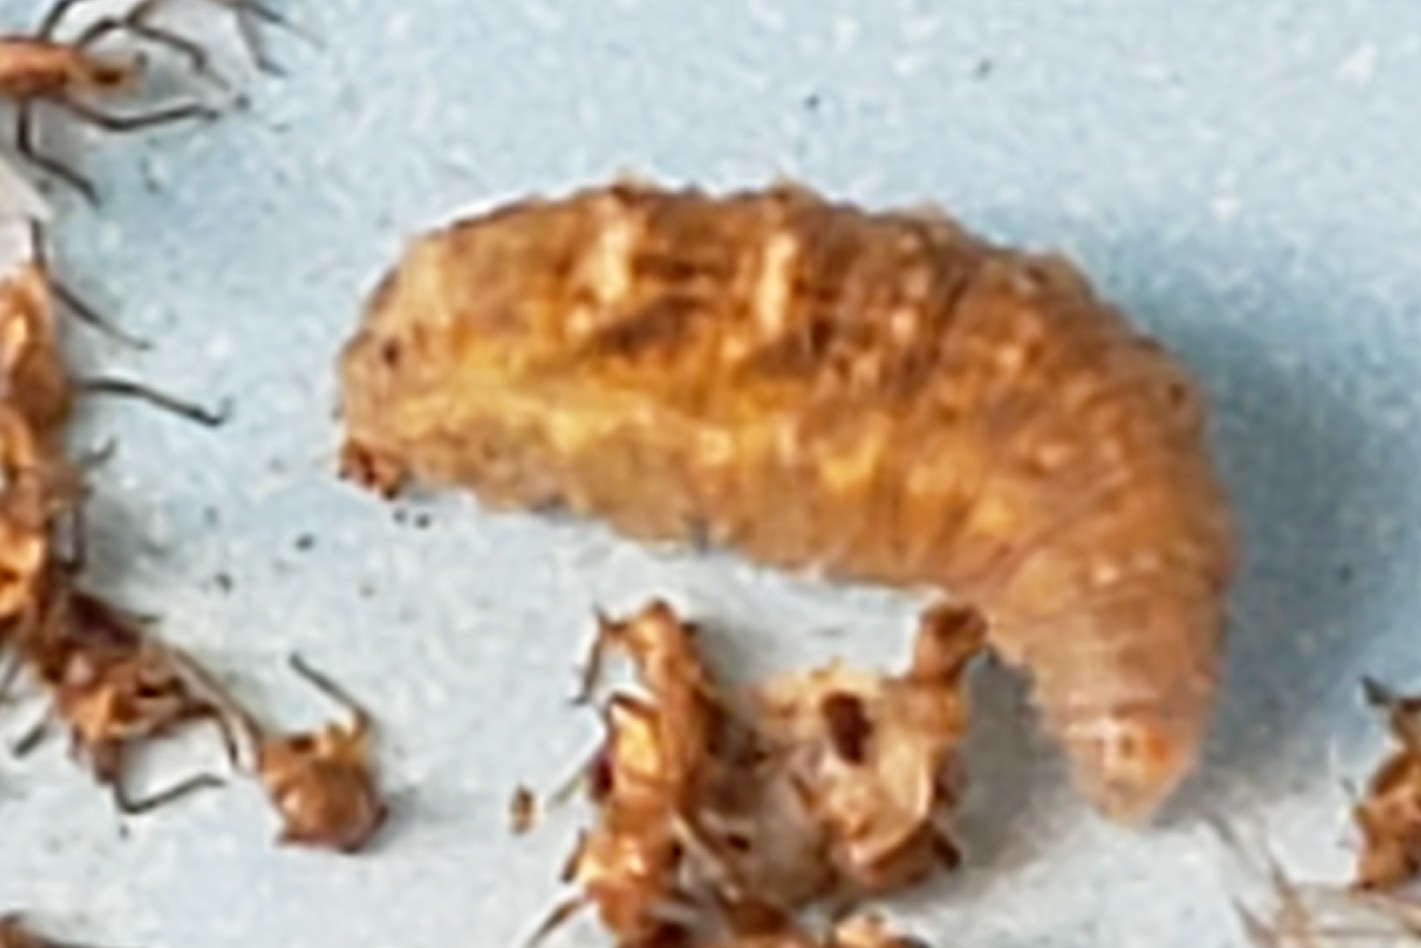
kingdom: Animalia
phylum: Arthropoda
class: Insecta
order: Diptera
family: Syrphidae
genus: Eupeodes
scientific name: Eupeodes fumipennis
